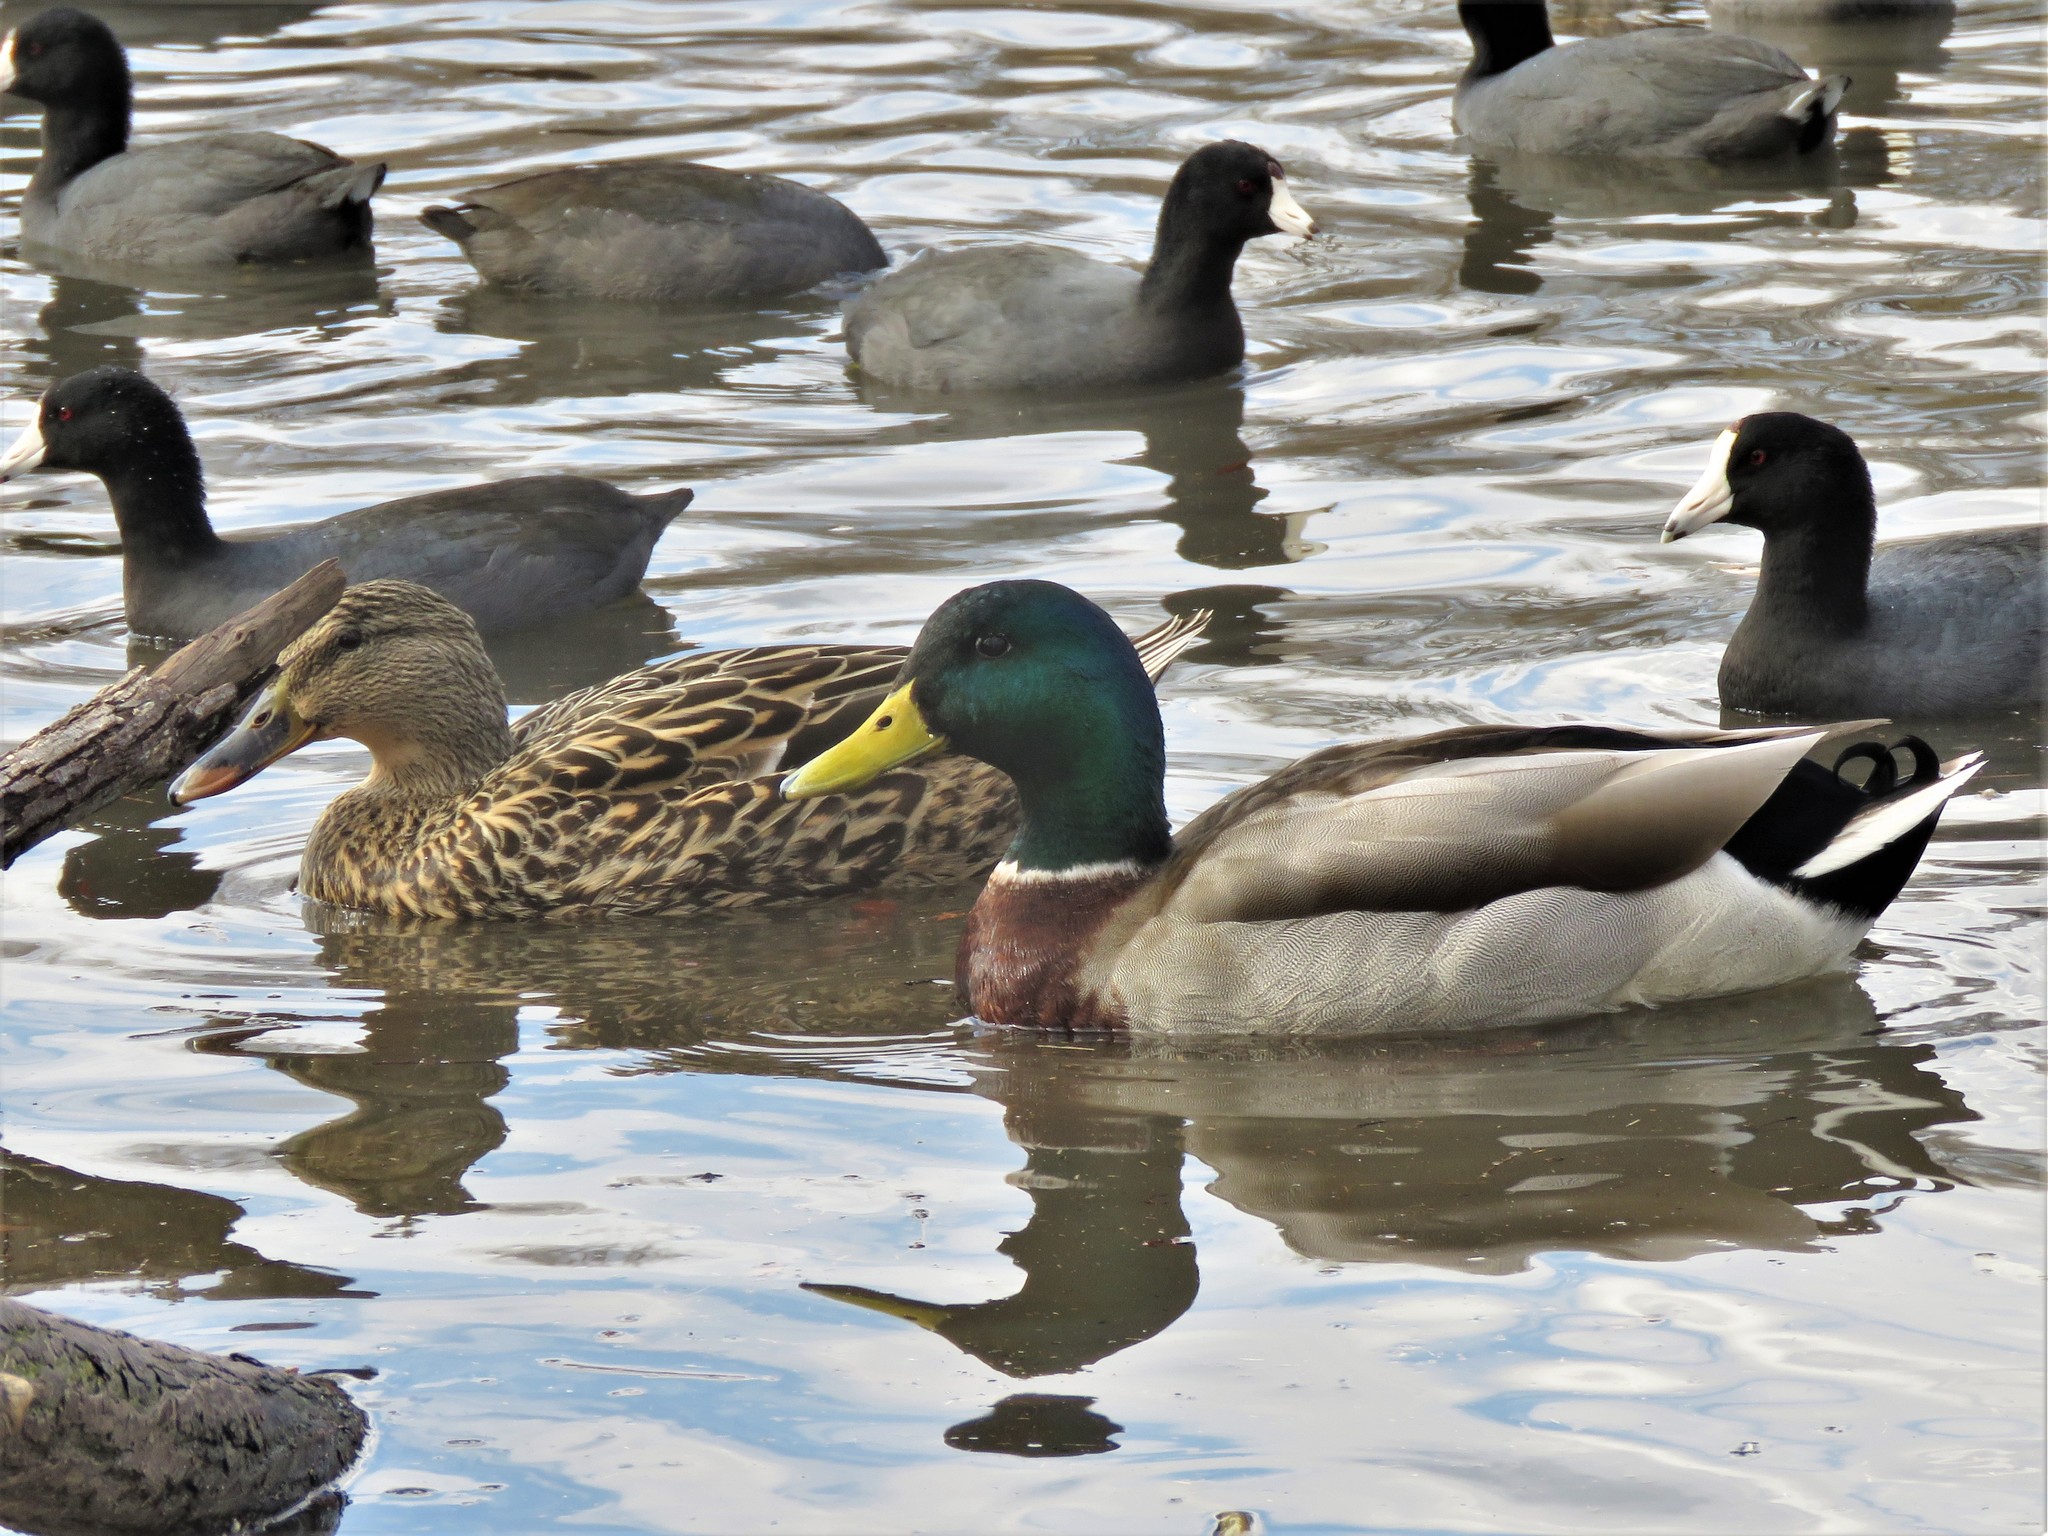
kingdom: Animalia
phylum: Chordata
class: Aves
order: Anseriformes
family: Anatidae
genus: Anas
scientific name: Anas platyrhynchos
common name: Mallard
